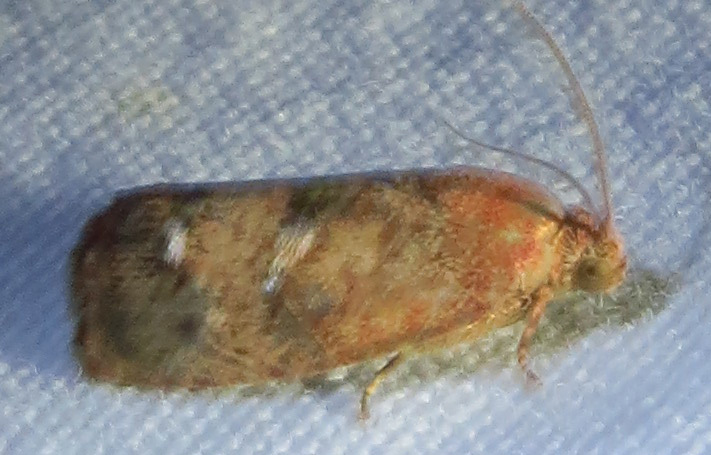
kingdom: Animalia
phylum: Arthropoda
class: Insecta
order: Lepidoptera
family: Tortricidae
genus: Cydia
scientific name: Cydia latiferreana
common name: Filbertworm moth
